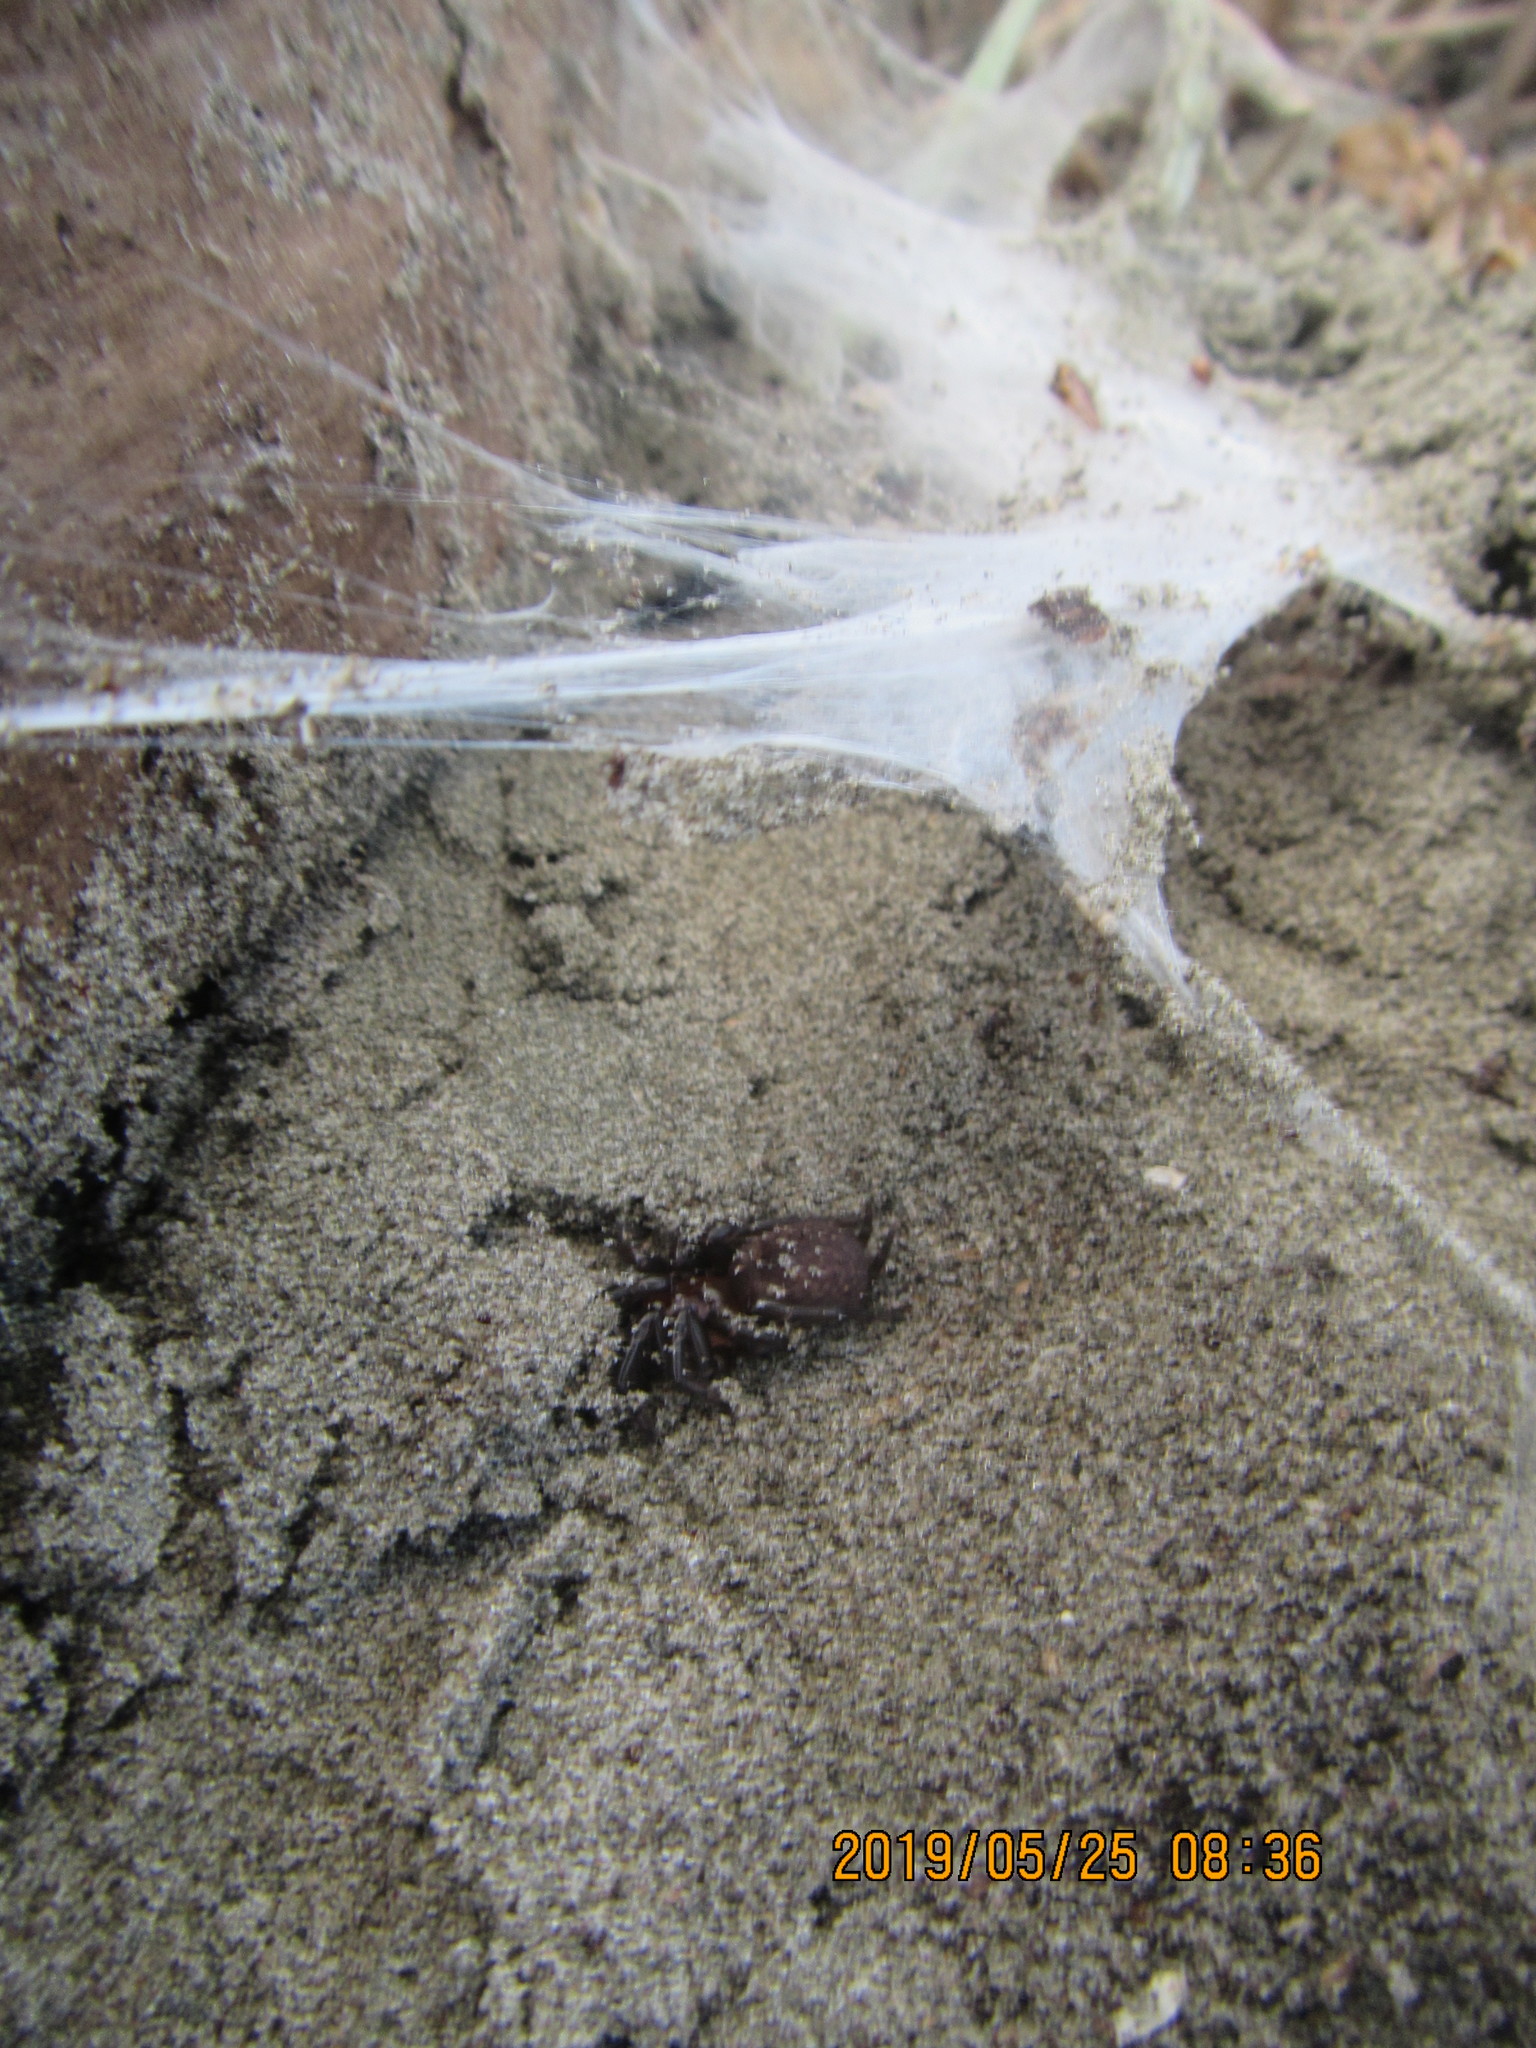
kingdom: Animalia
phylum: Arthropoda
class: Arachnida
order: Araneae
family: Porrhothelidae
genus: Porrhothele
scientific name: Porrhothele antipodiana
